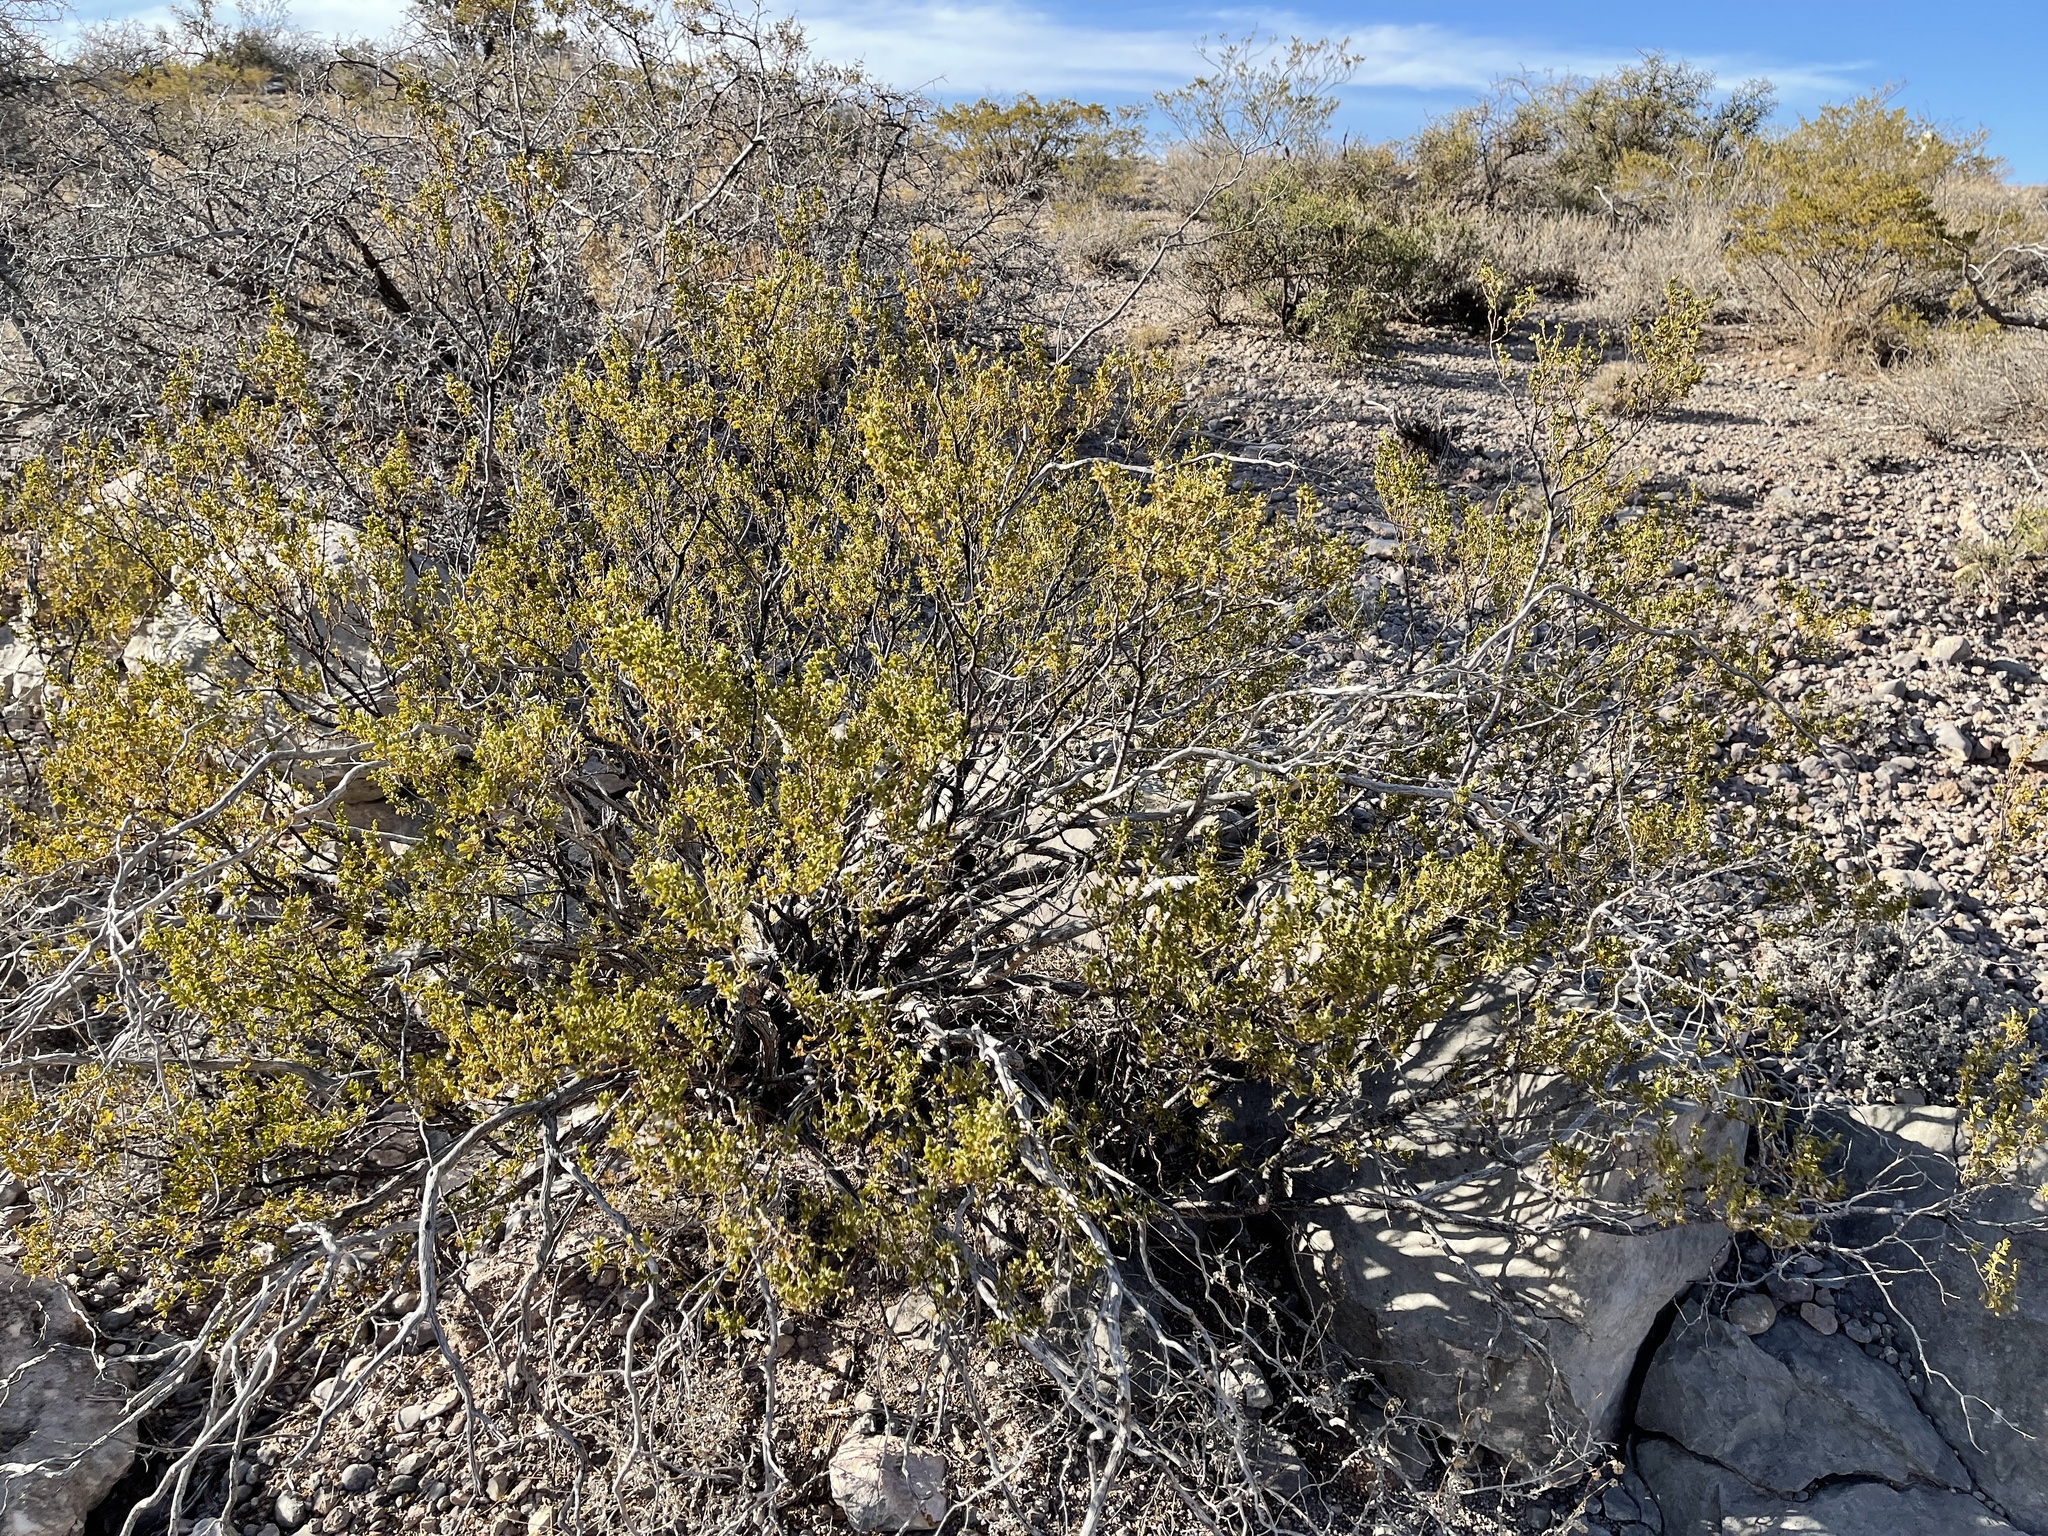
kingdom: Plantae
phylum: Tracheophyta
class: Magnoliopsida
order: Zygophyllales
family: Zygophyllaceae
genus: Larrea
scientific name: Larrea tridentata
